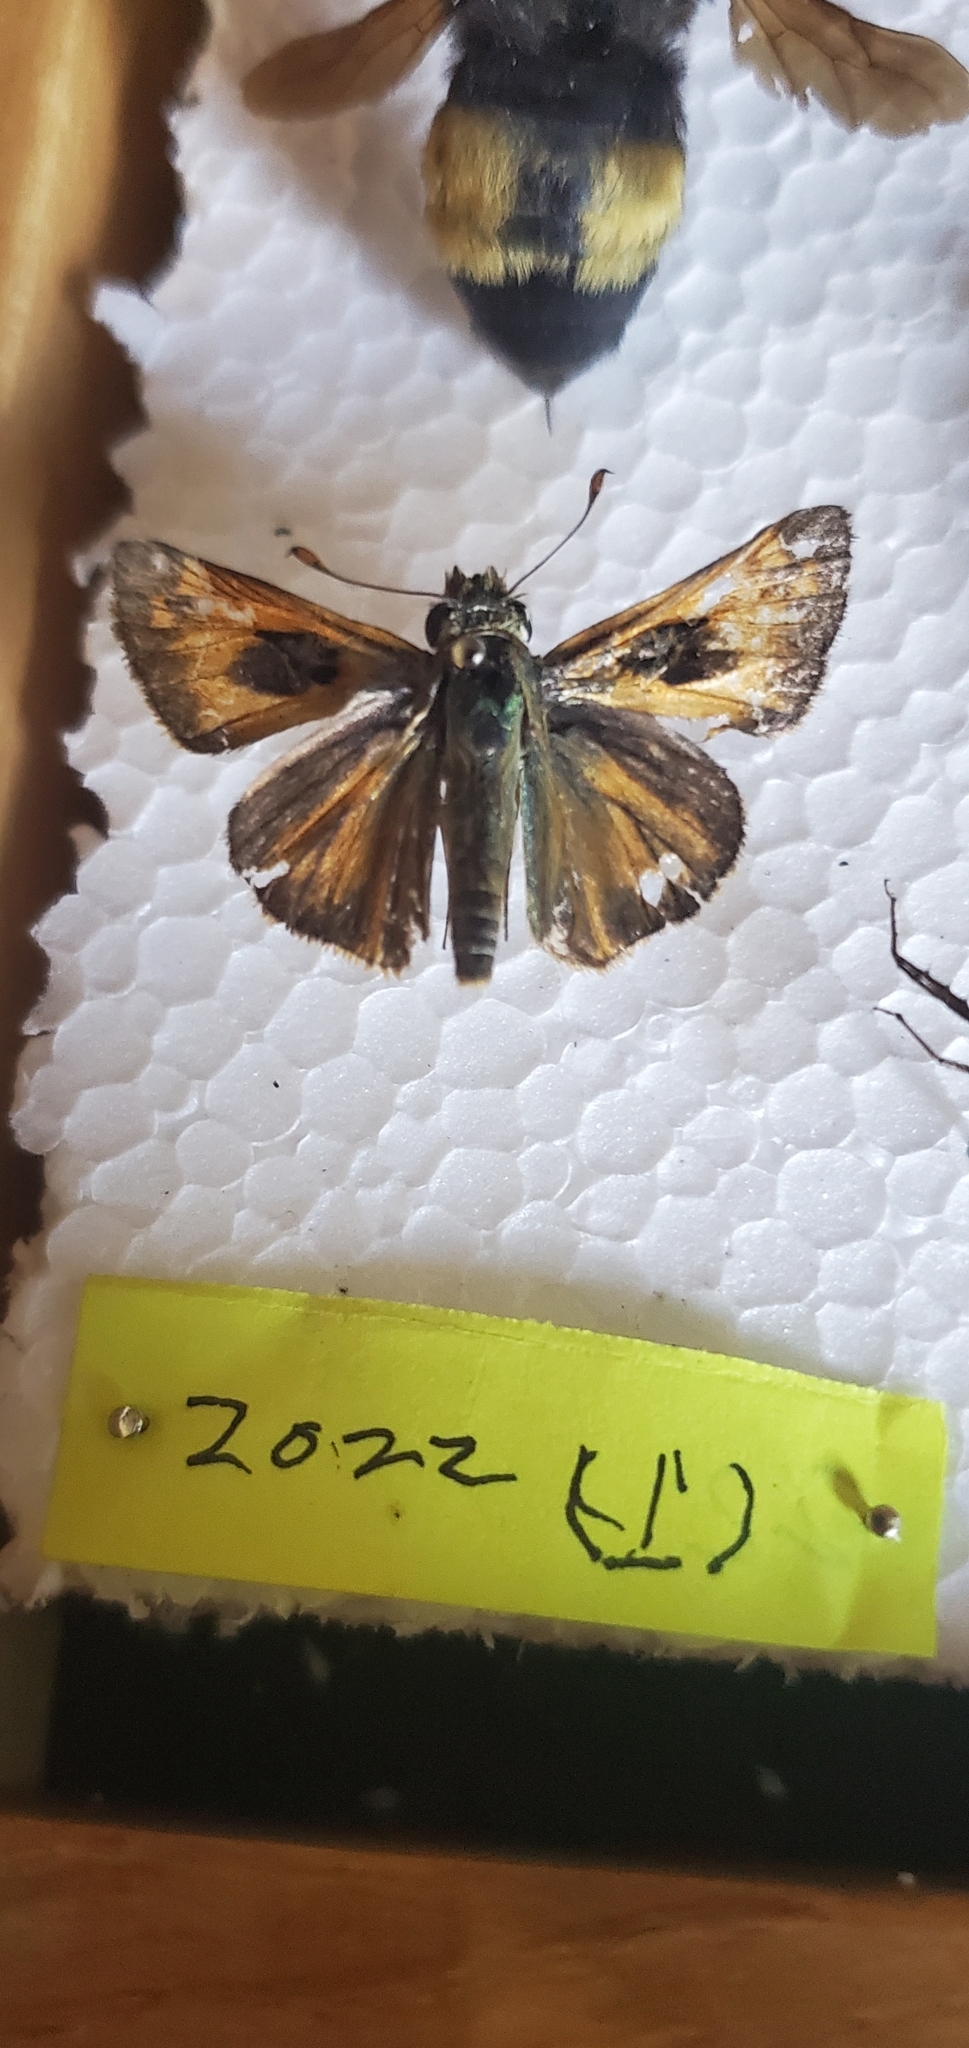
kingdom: Animalia
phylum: Arthropoda
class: Insecta
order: Lepidoptera
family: Hesperiidae
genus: Atalopedes
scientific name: Atalopedes
